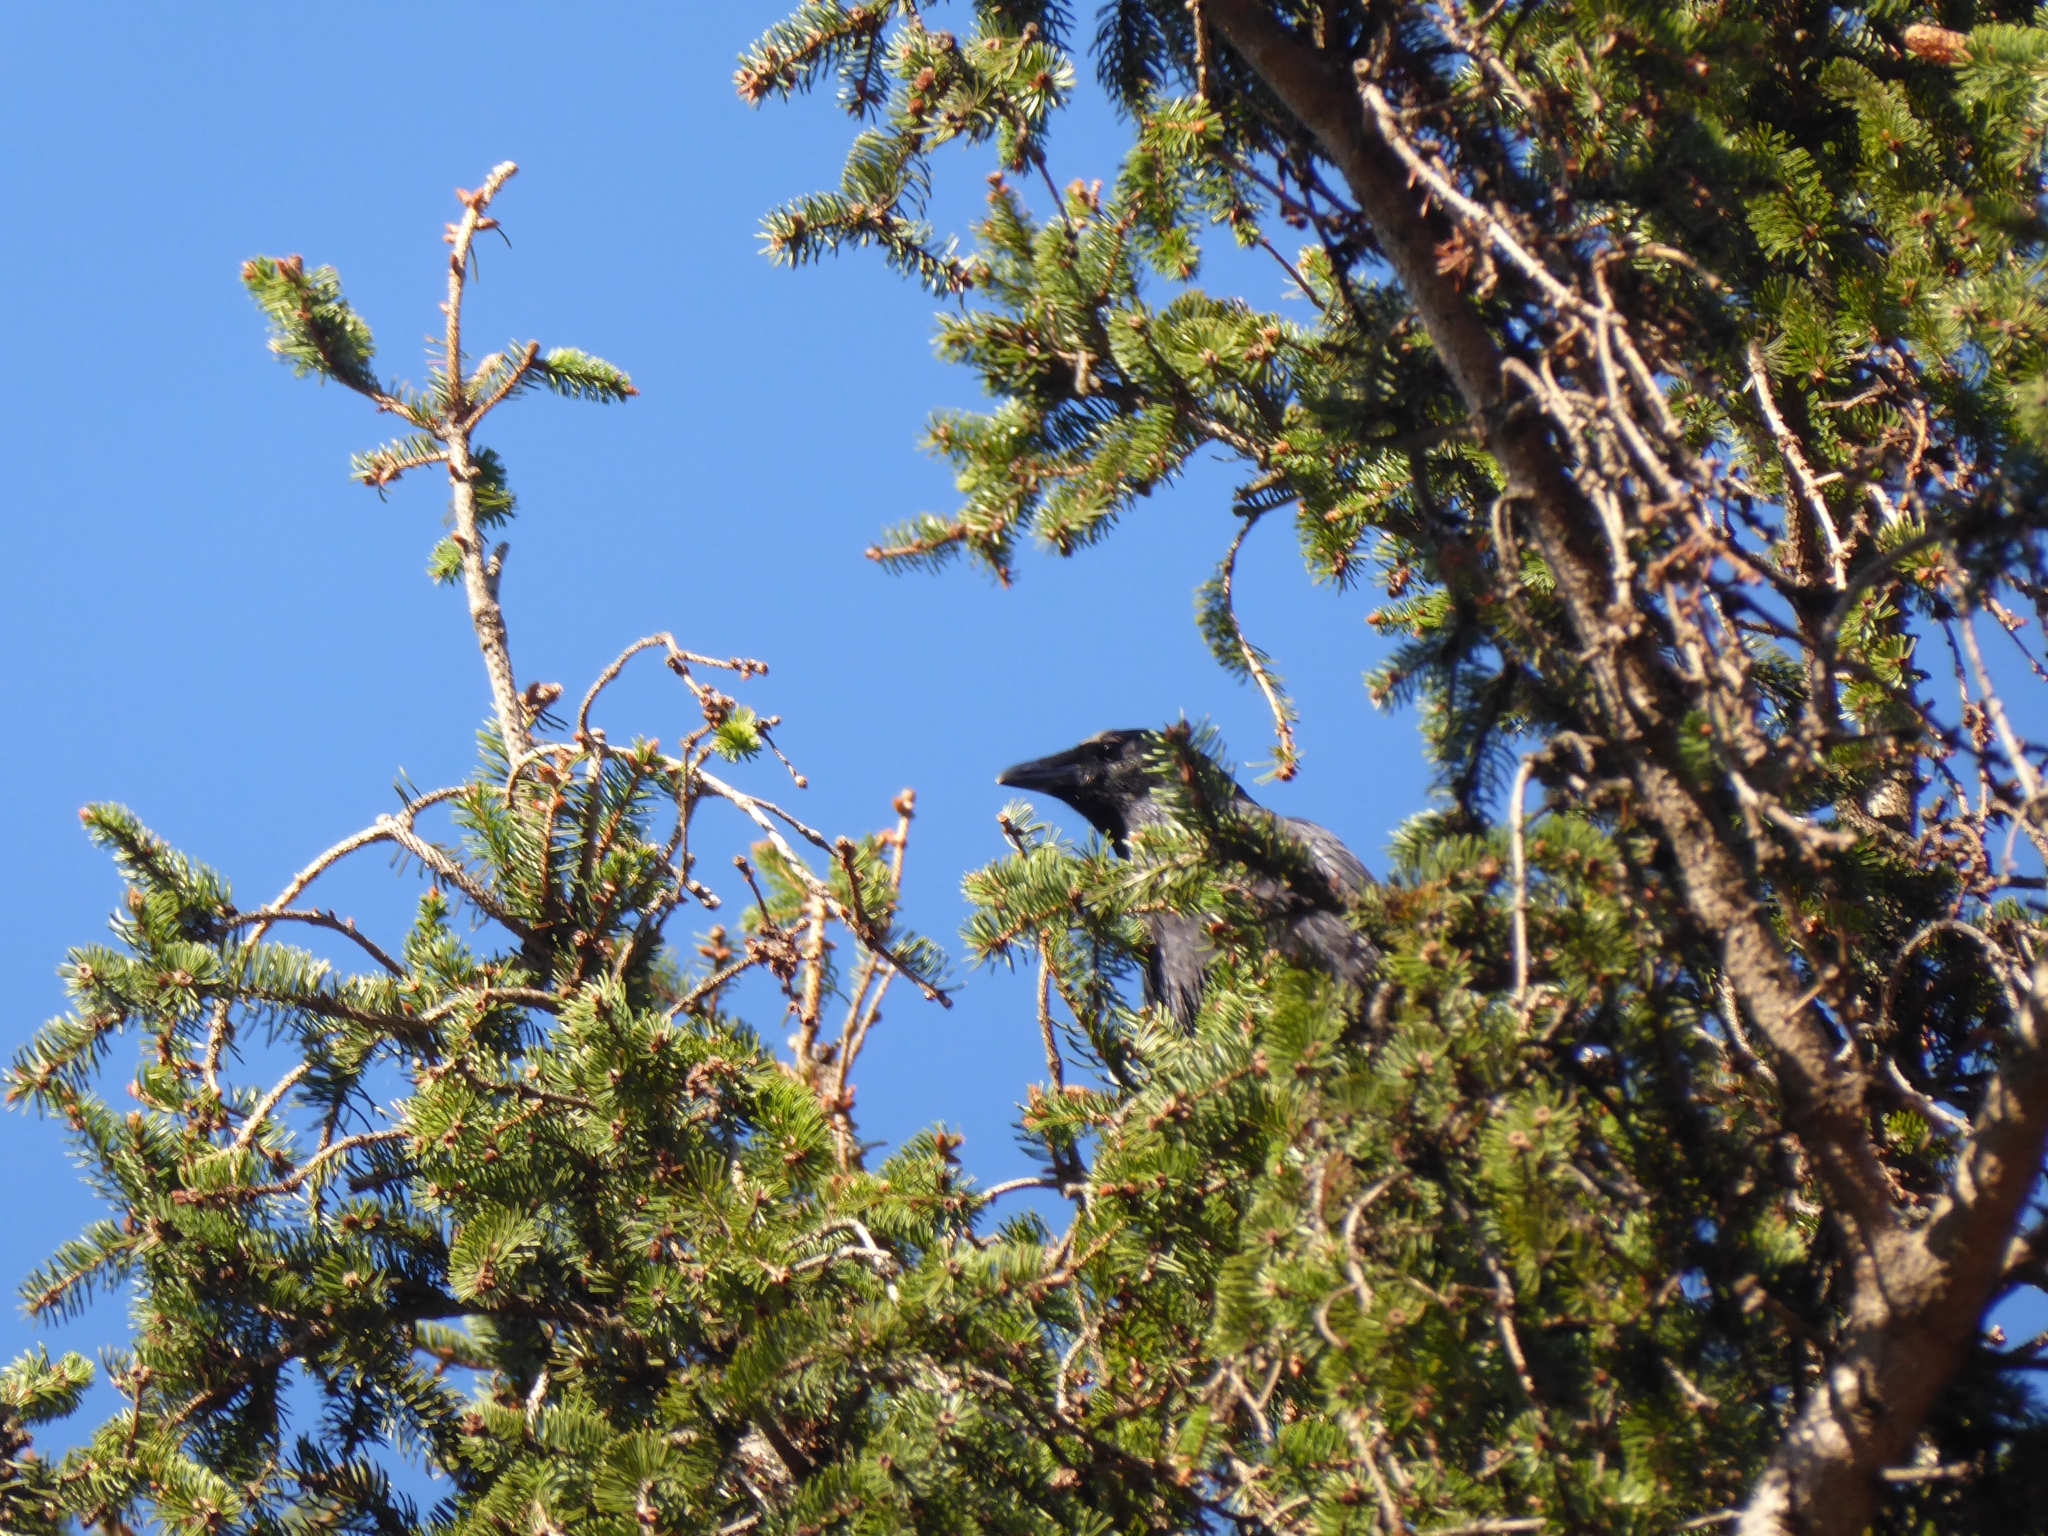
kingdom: Animalia
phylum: Chordata
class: Aves
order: Passeriformes
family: Corvidae
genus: Corvus
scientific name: Corvus corone
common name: Carrion crow
